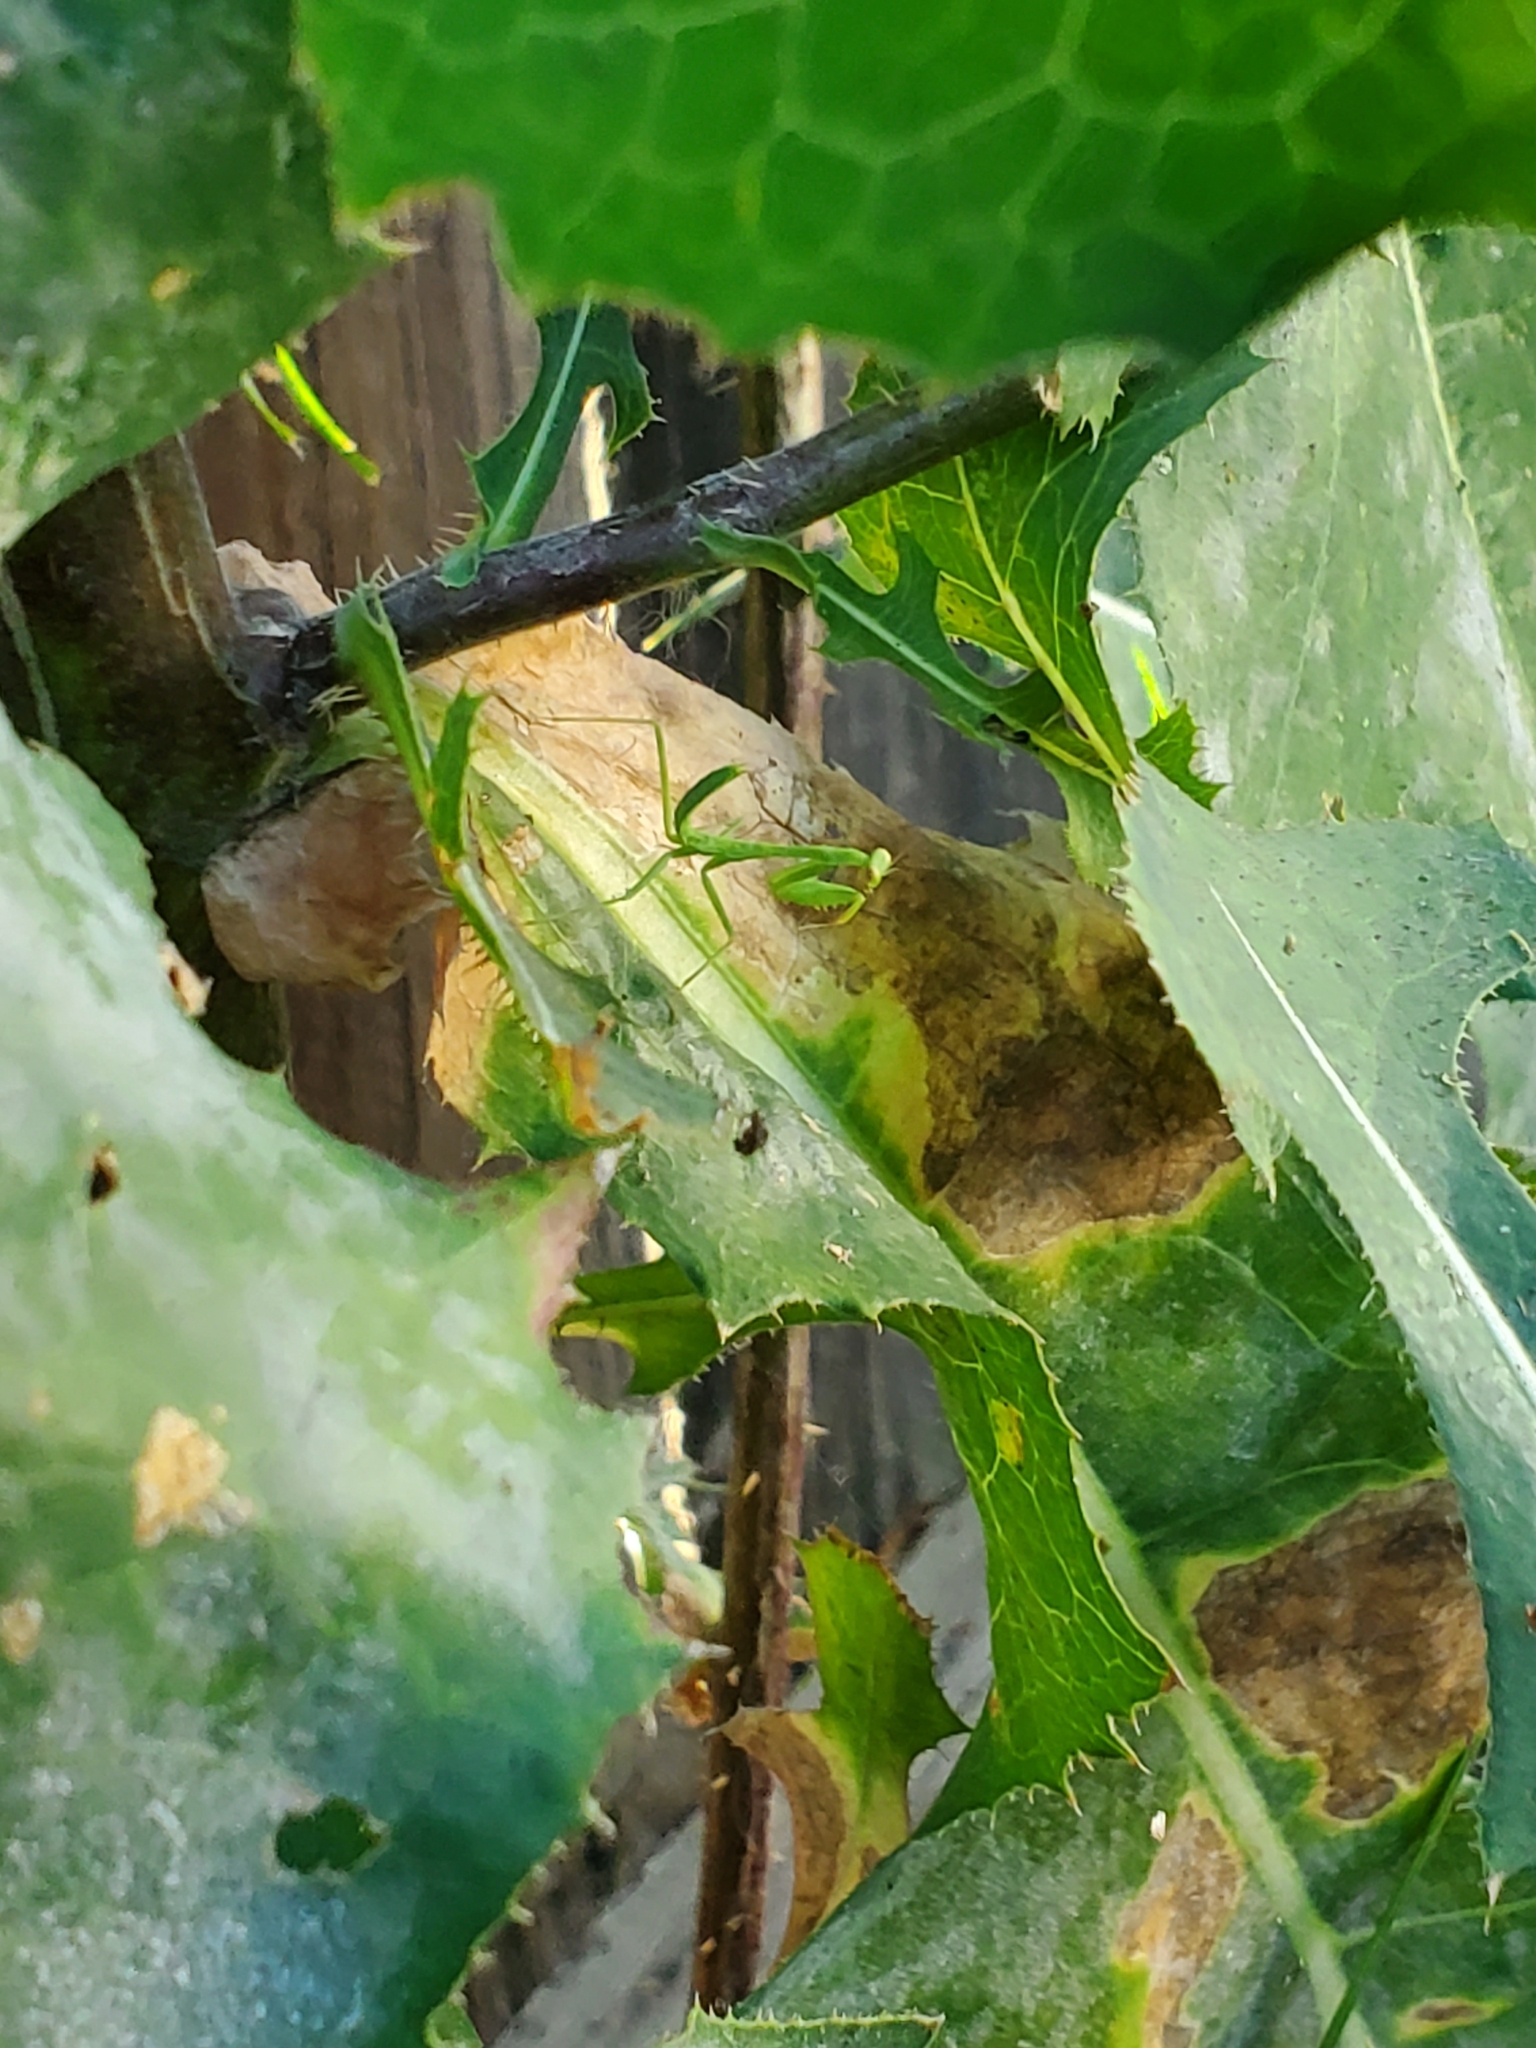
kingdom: Animalia
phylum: Arthropoda
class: Insecta
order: Mantodea
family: Mantidae
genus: Stagmomantis
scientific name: Stagmomantis limbata
